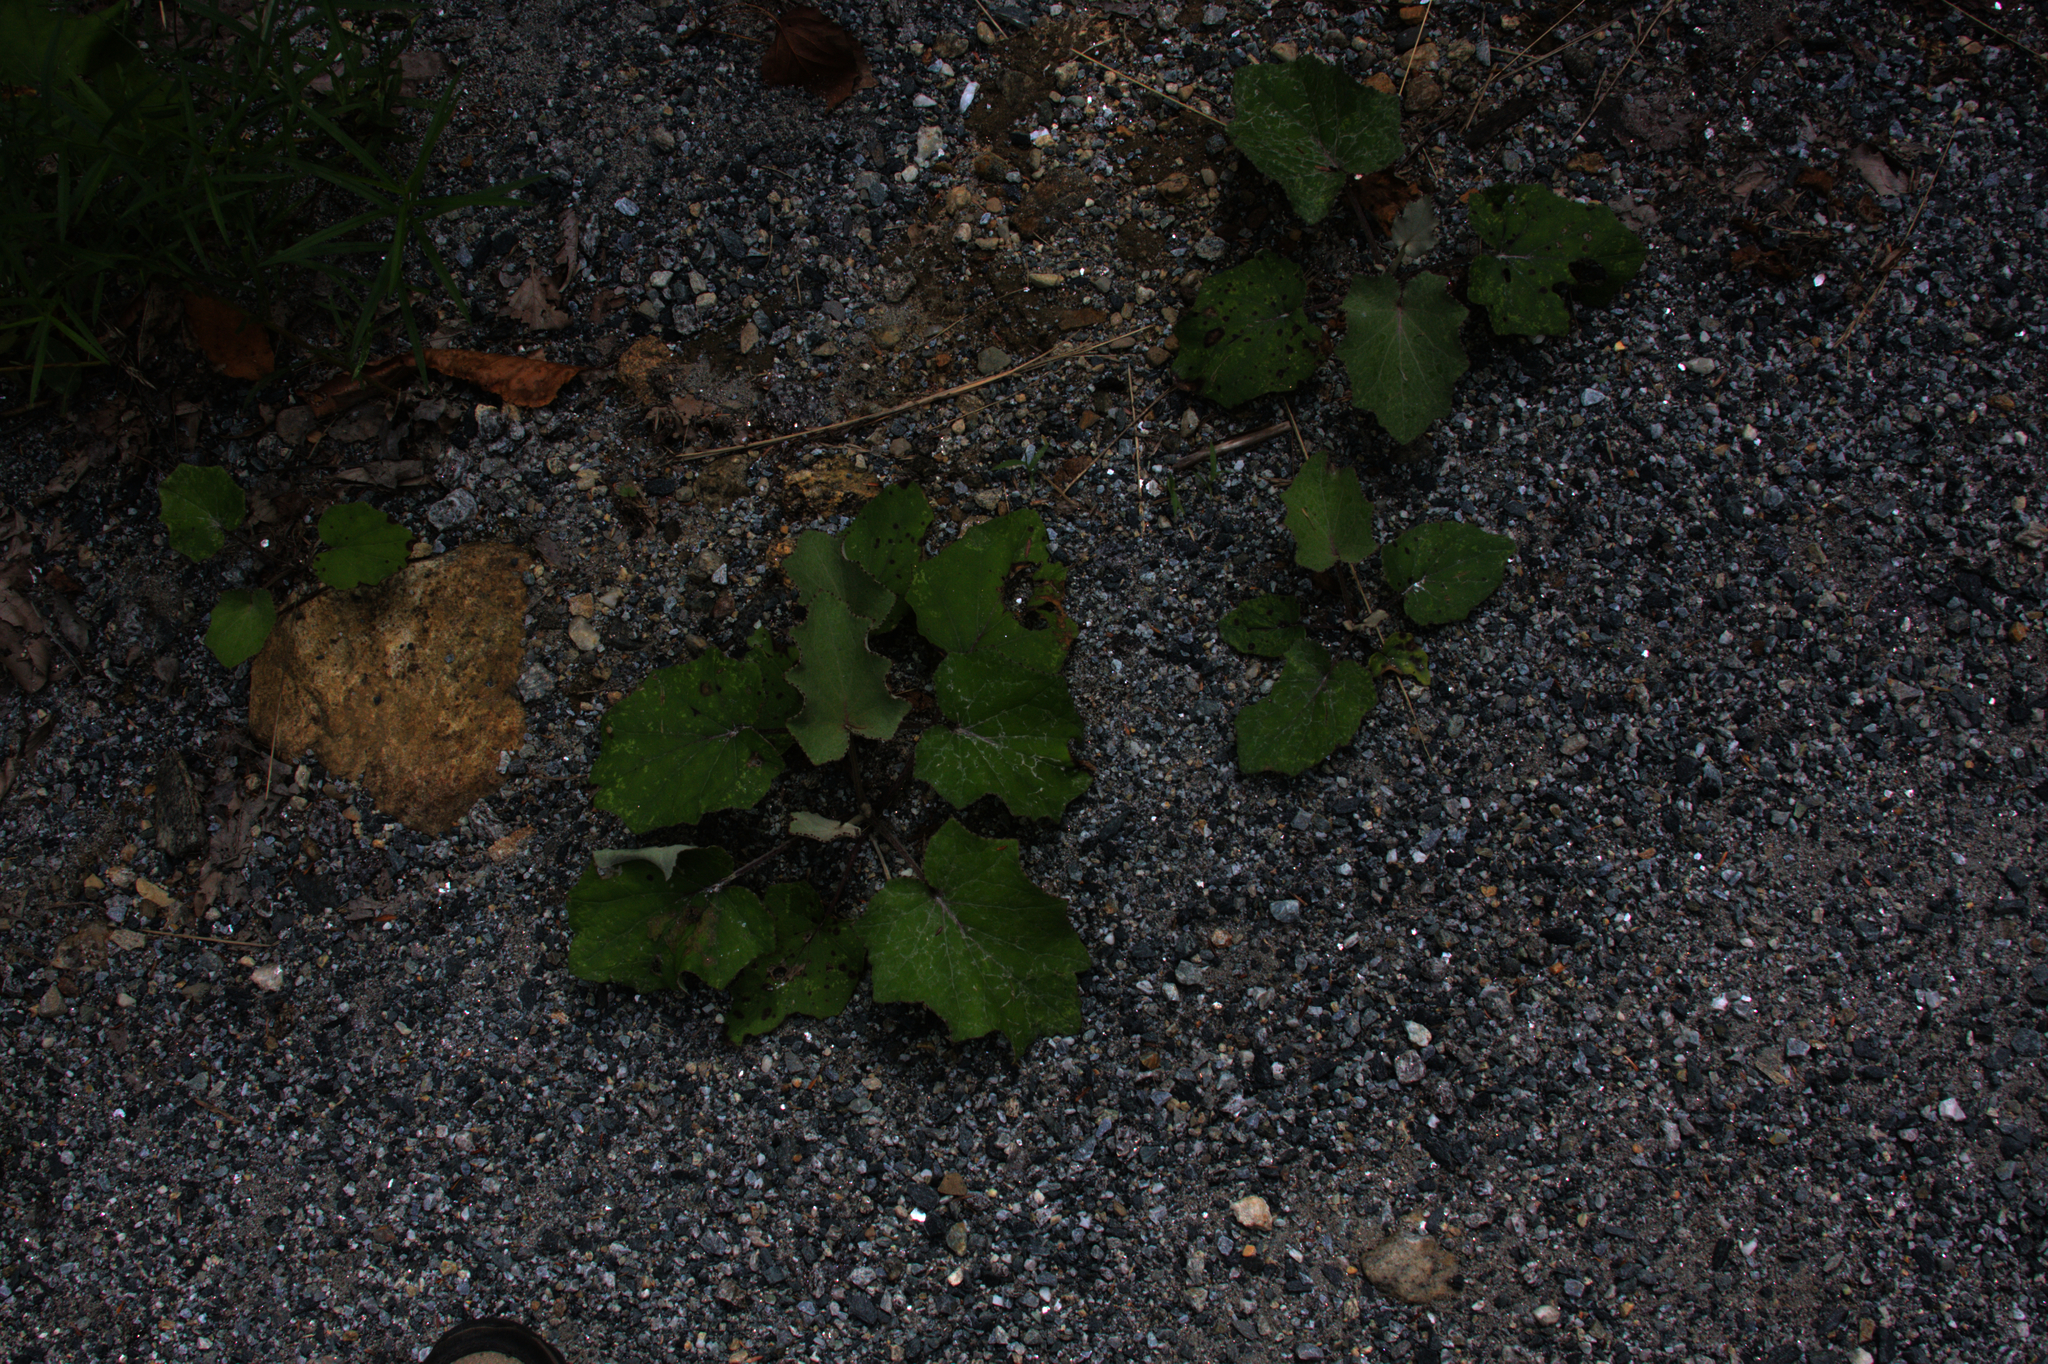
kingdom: Plantae
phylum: Tracheophyta
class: Magnoliopsida
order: Asterales
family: Asteraceae
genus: Tussilago
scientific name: Tussilago farfara
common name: Coltsfoot
